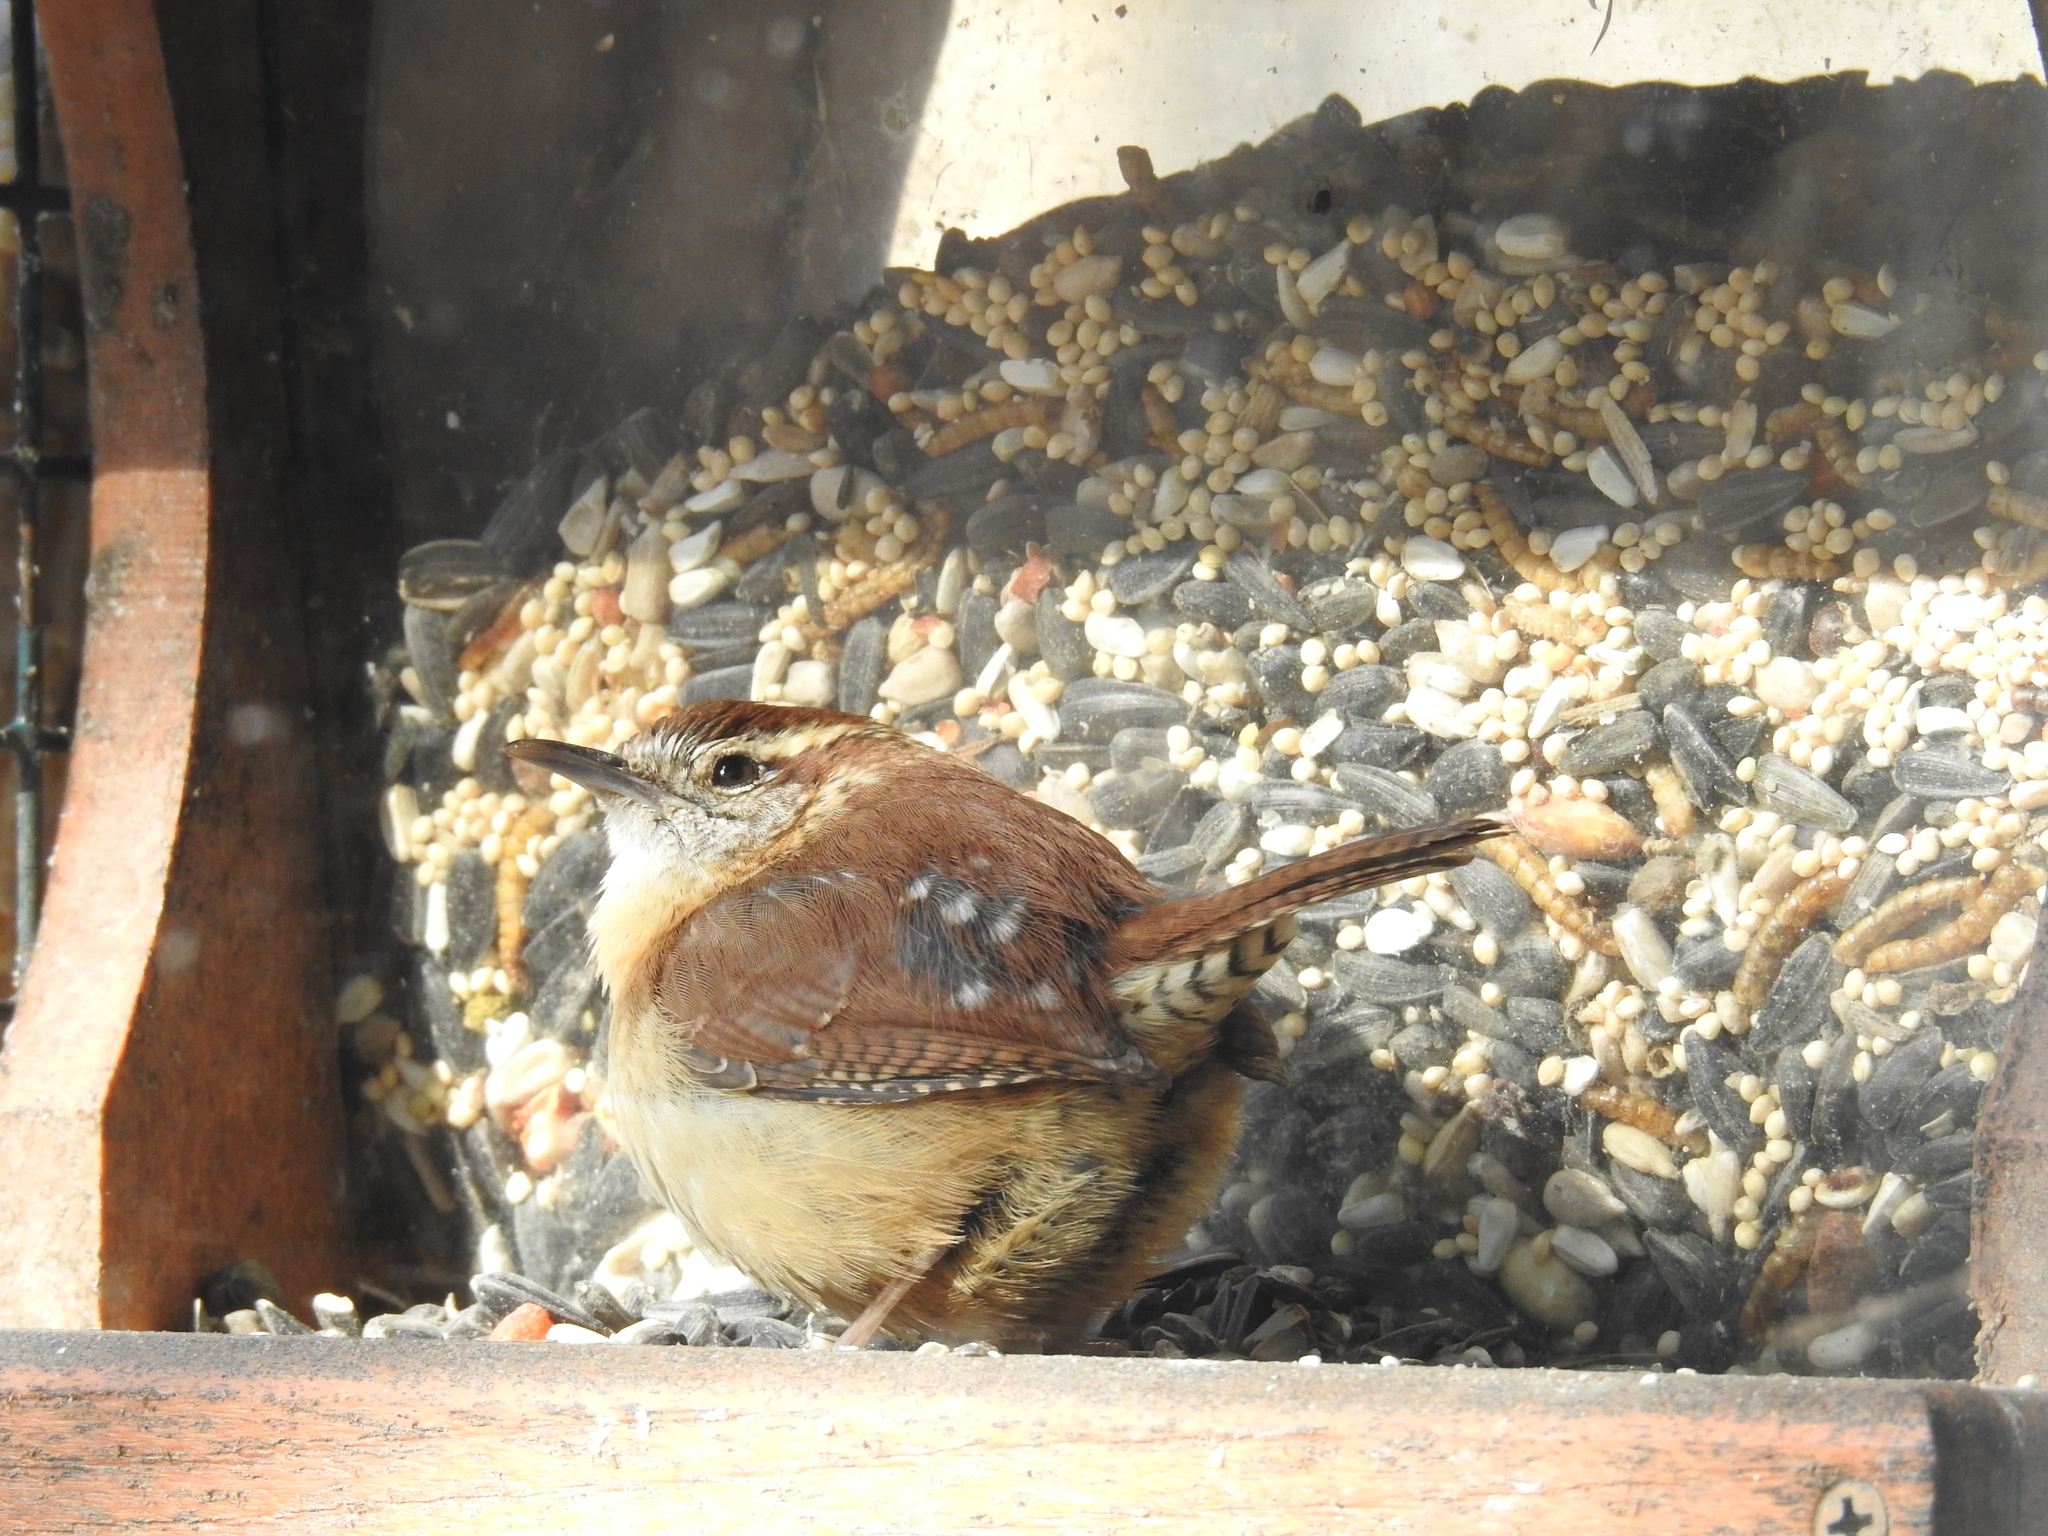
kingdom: Animalia
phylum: Chordata
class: Aves
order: Passeriformes
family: Troglodytidae
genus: Thryothorus
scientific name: Thryothorus ludovicianus
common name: Carolina wren
